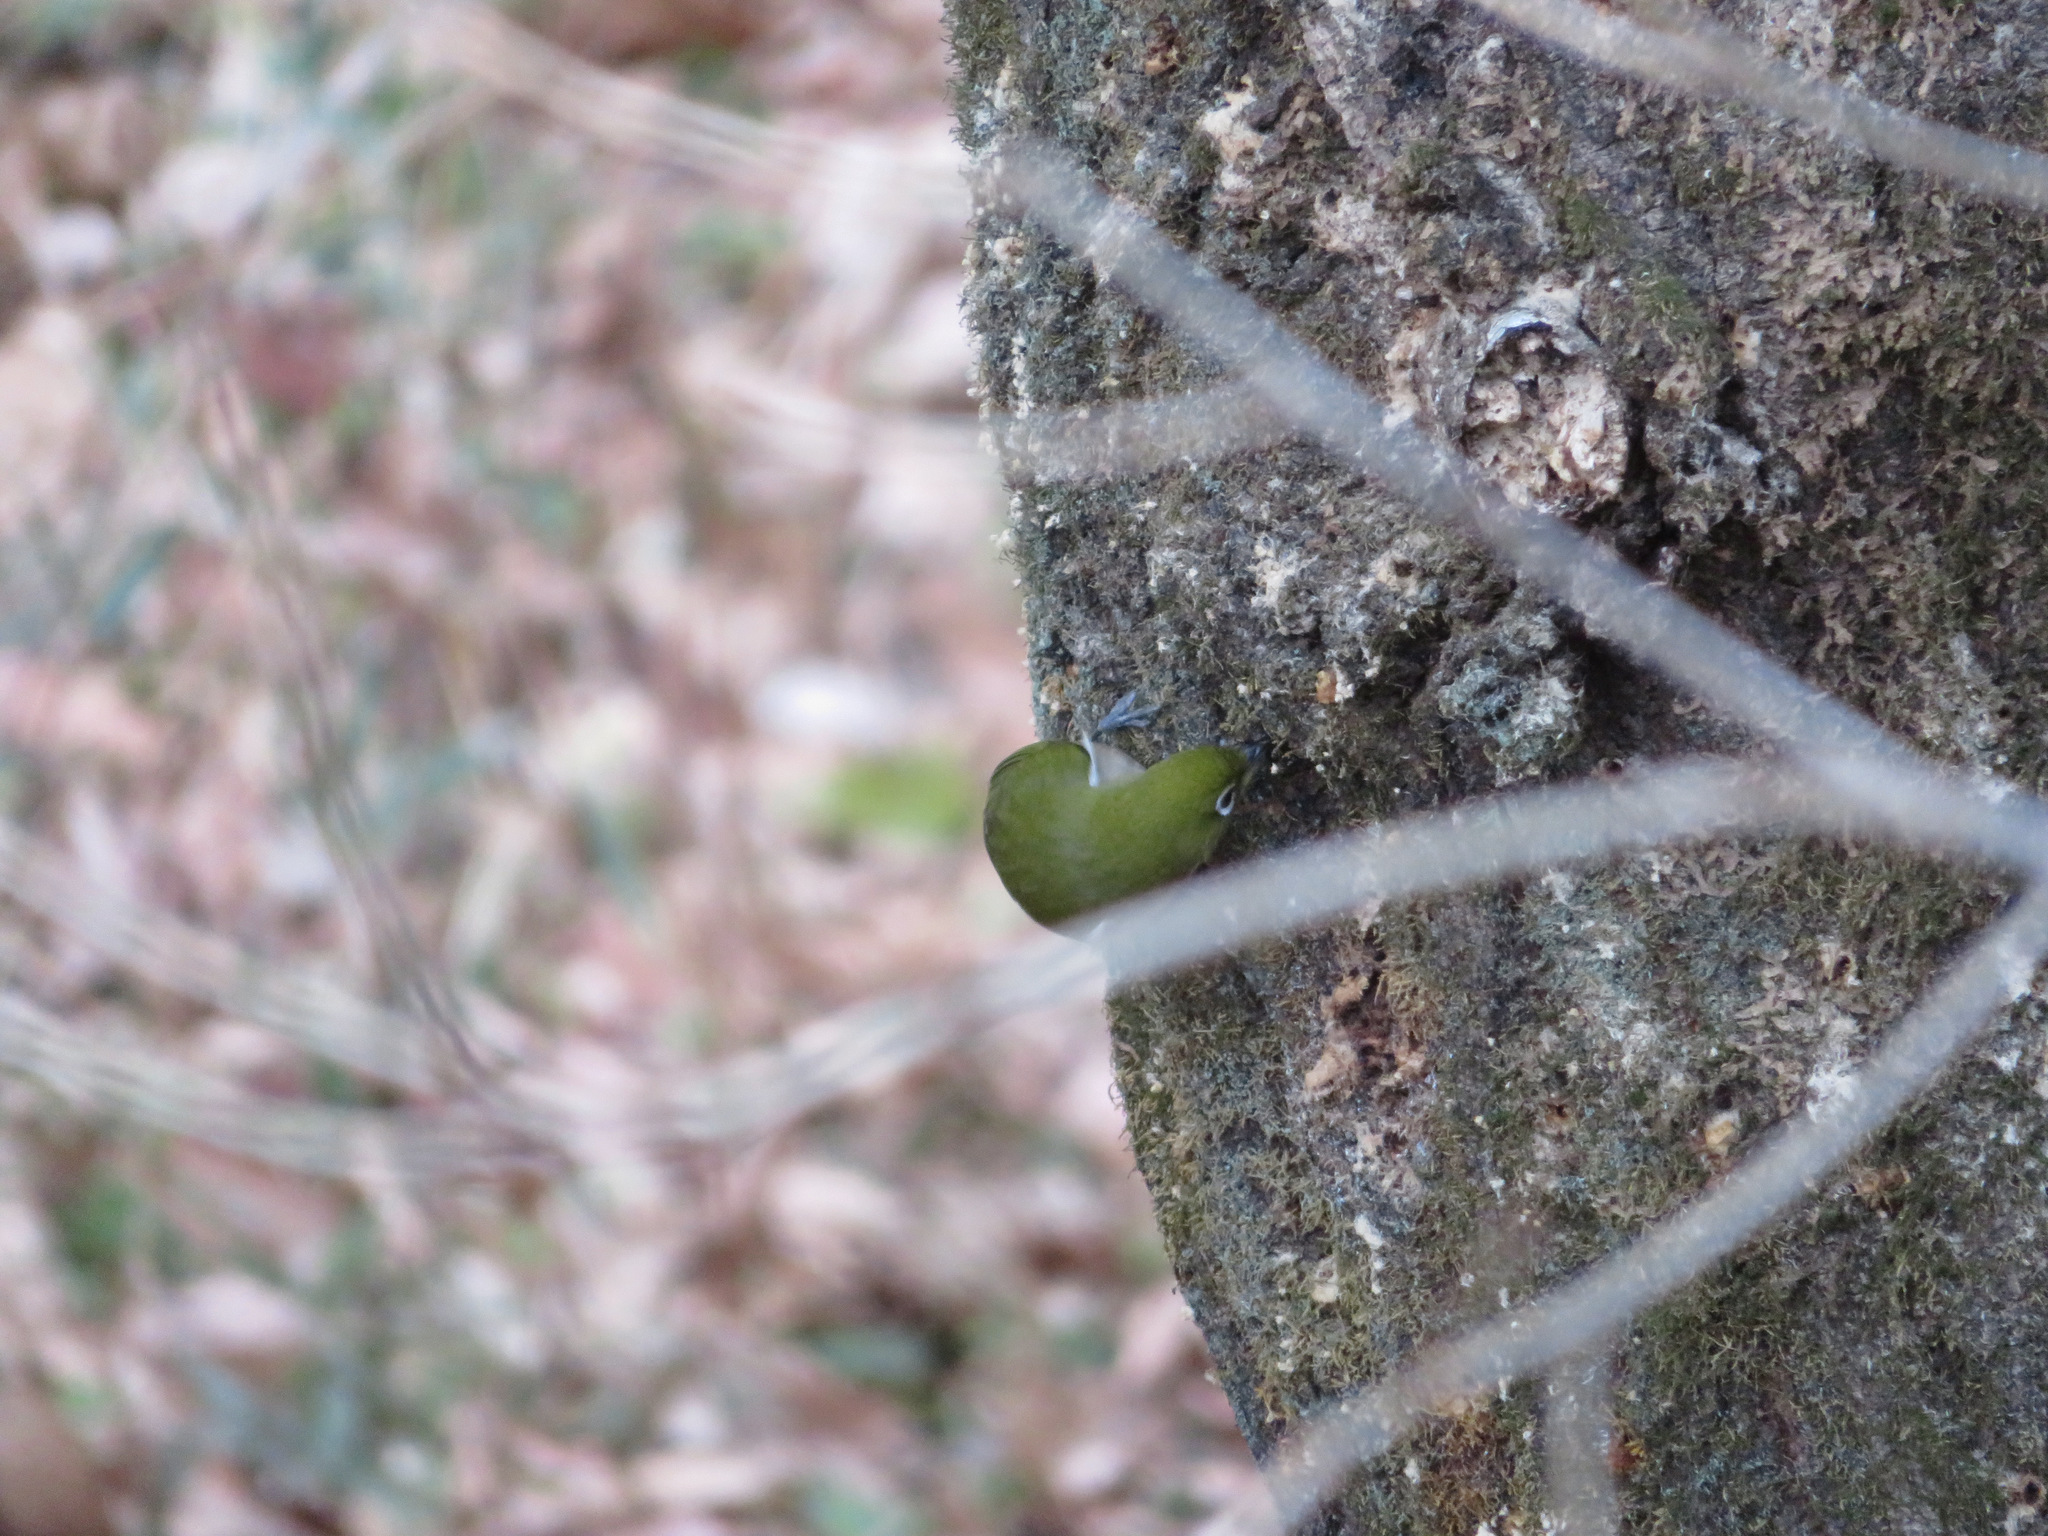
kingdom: Animalia
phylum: Chordata
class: Aves
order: Passeriformes
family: Zosteropidae
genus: Zosterops
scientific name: Zosterops japonicus
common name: Japanese white-eye
